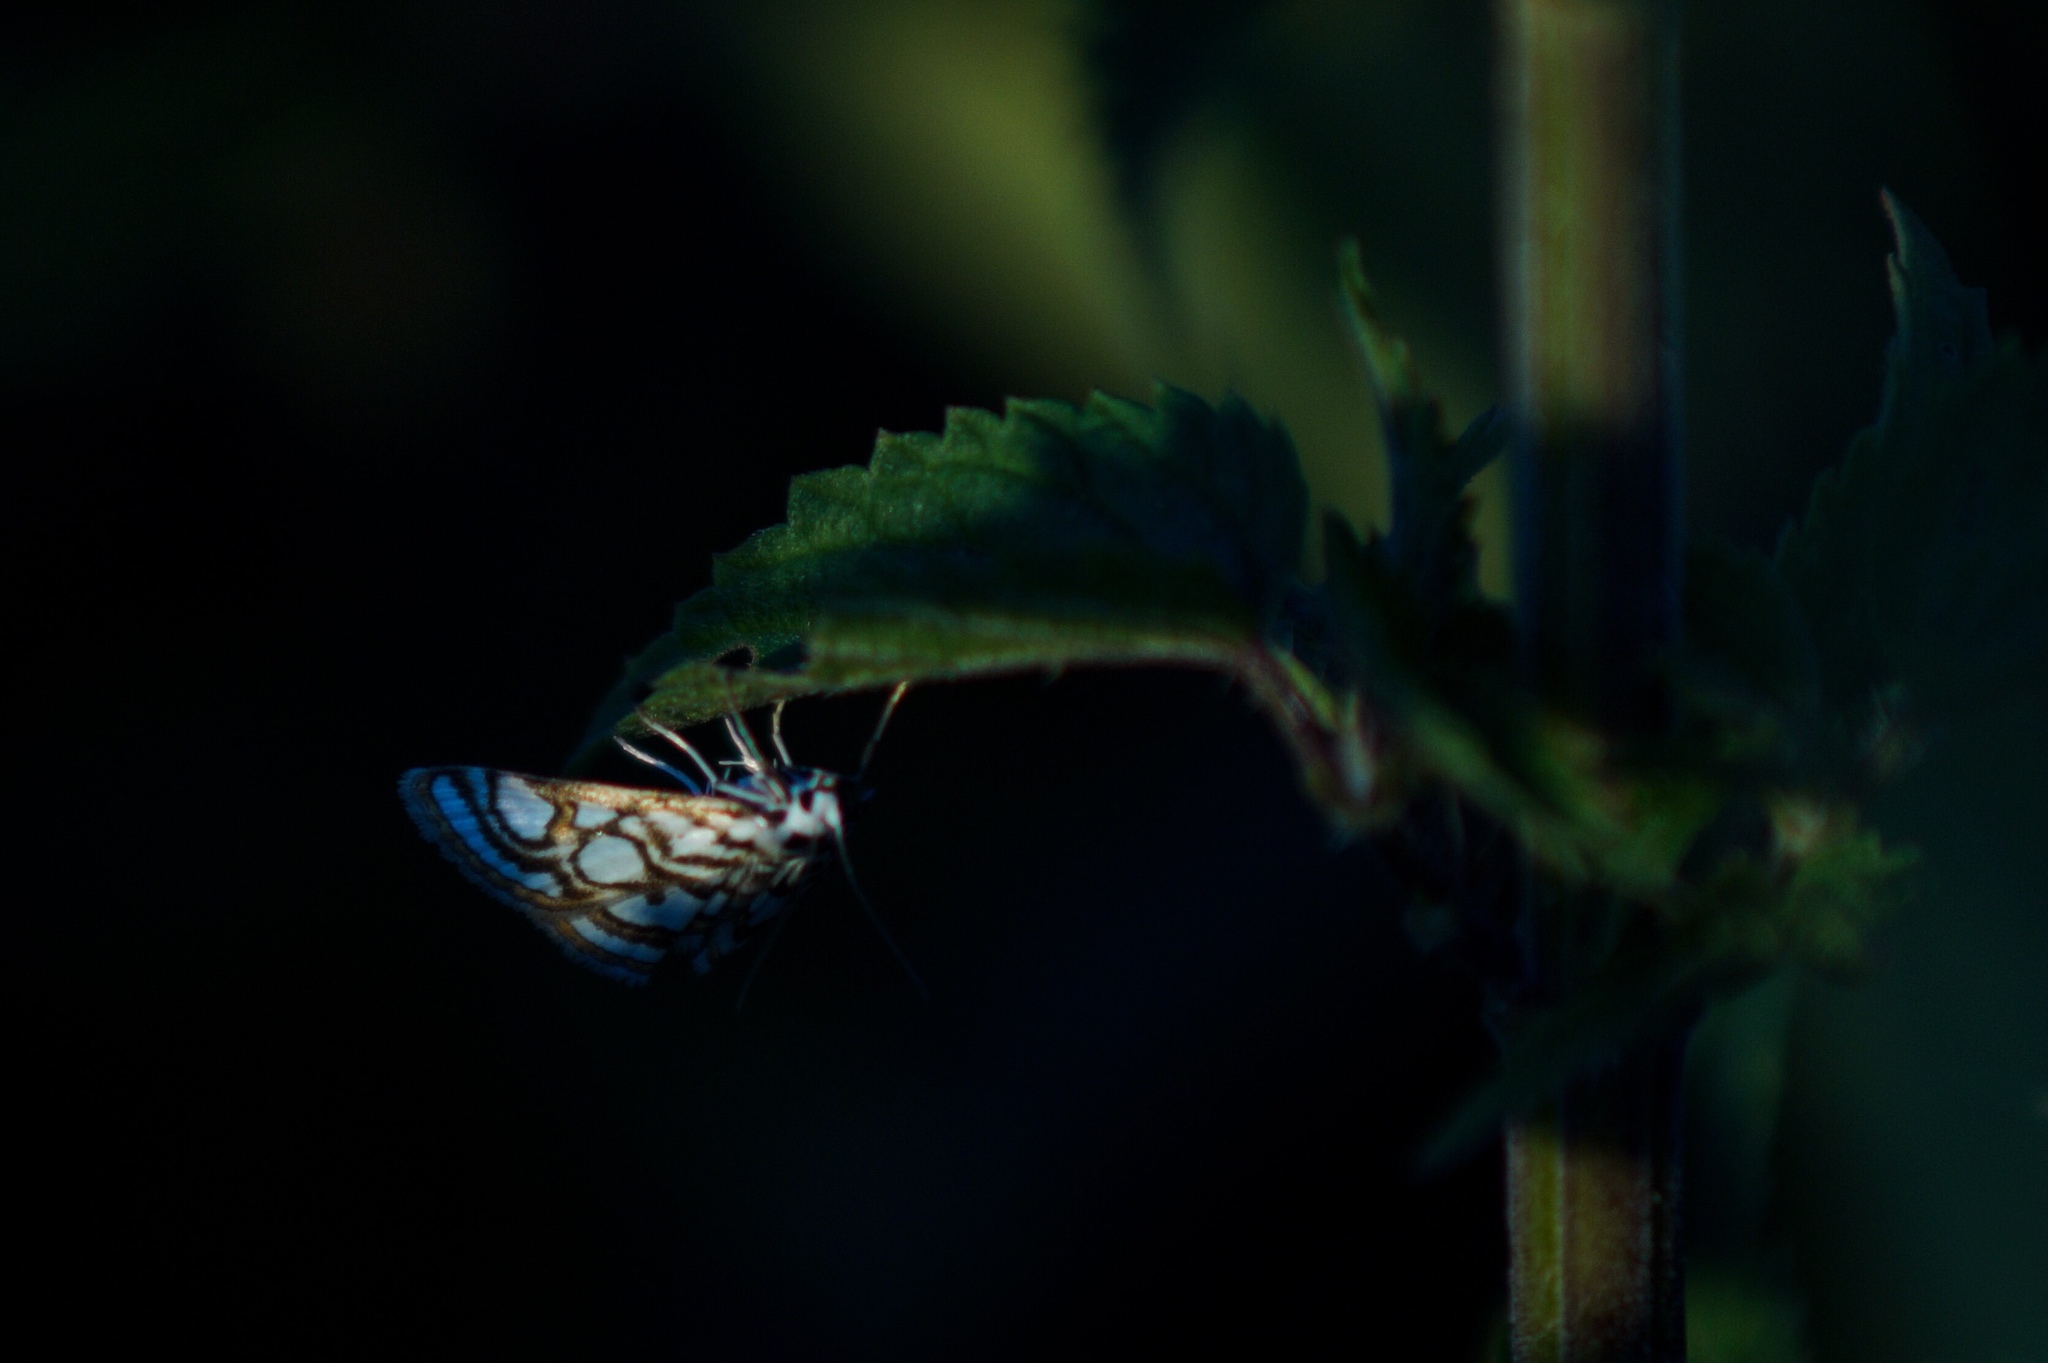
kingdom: Animalia
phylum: Arthropoda
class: Insecta
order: Lepidoptera
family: Crambidae
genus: Nymphula
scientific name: Nymphula nitidulata
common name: Beautiful china mark
